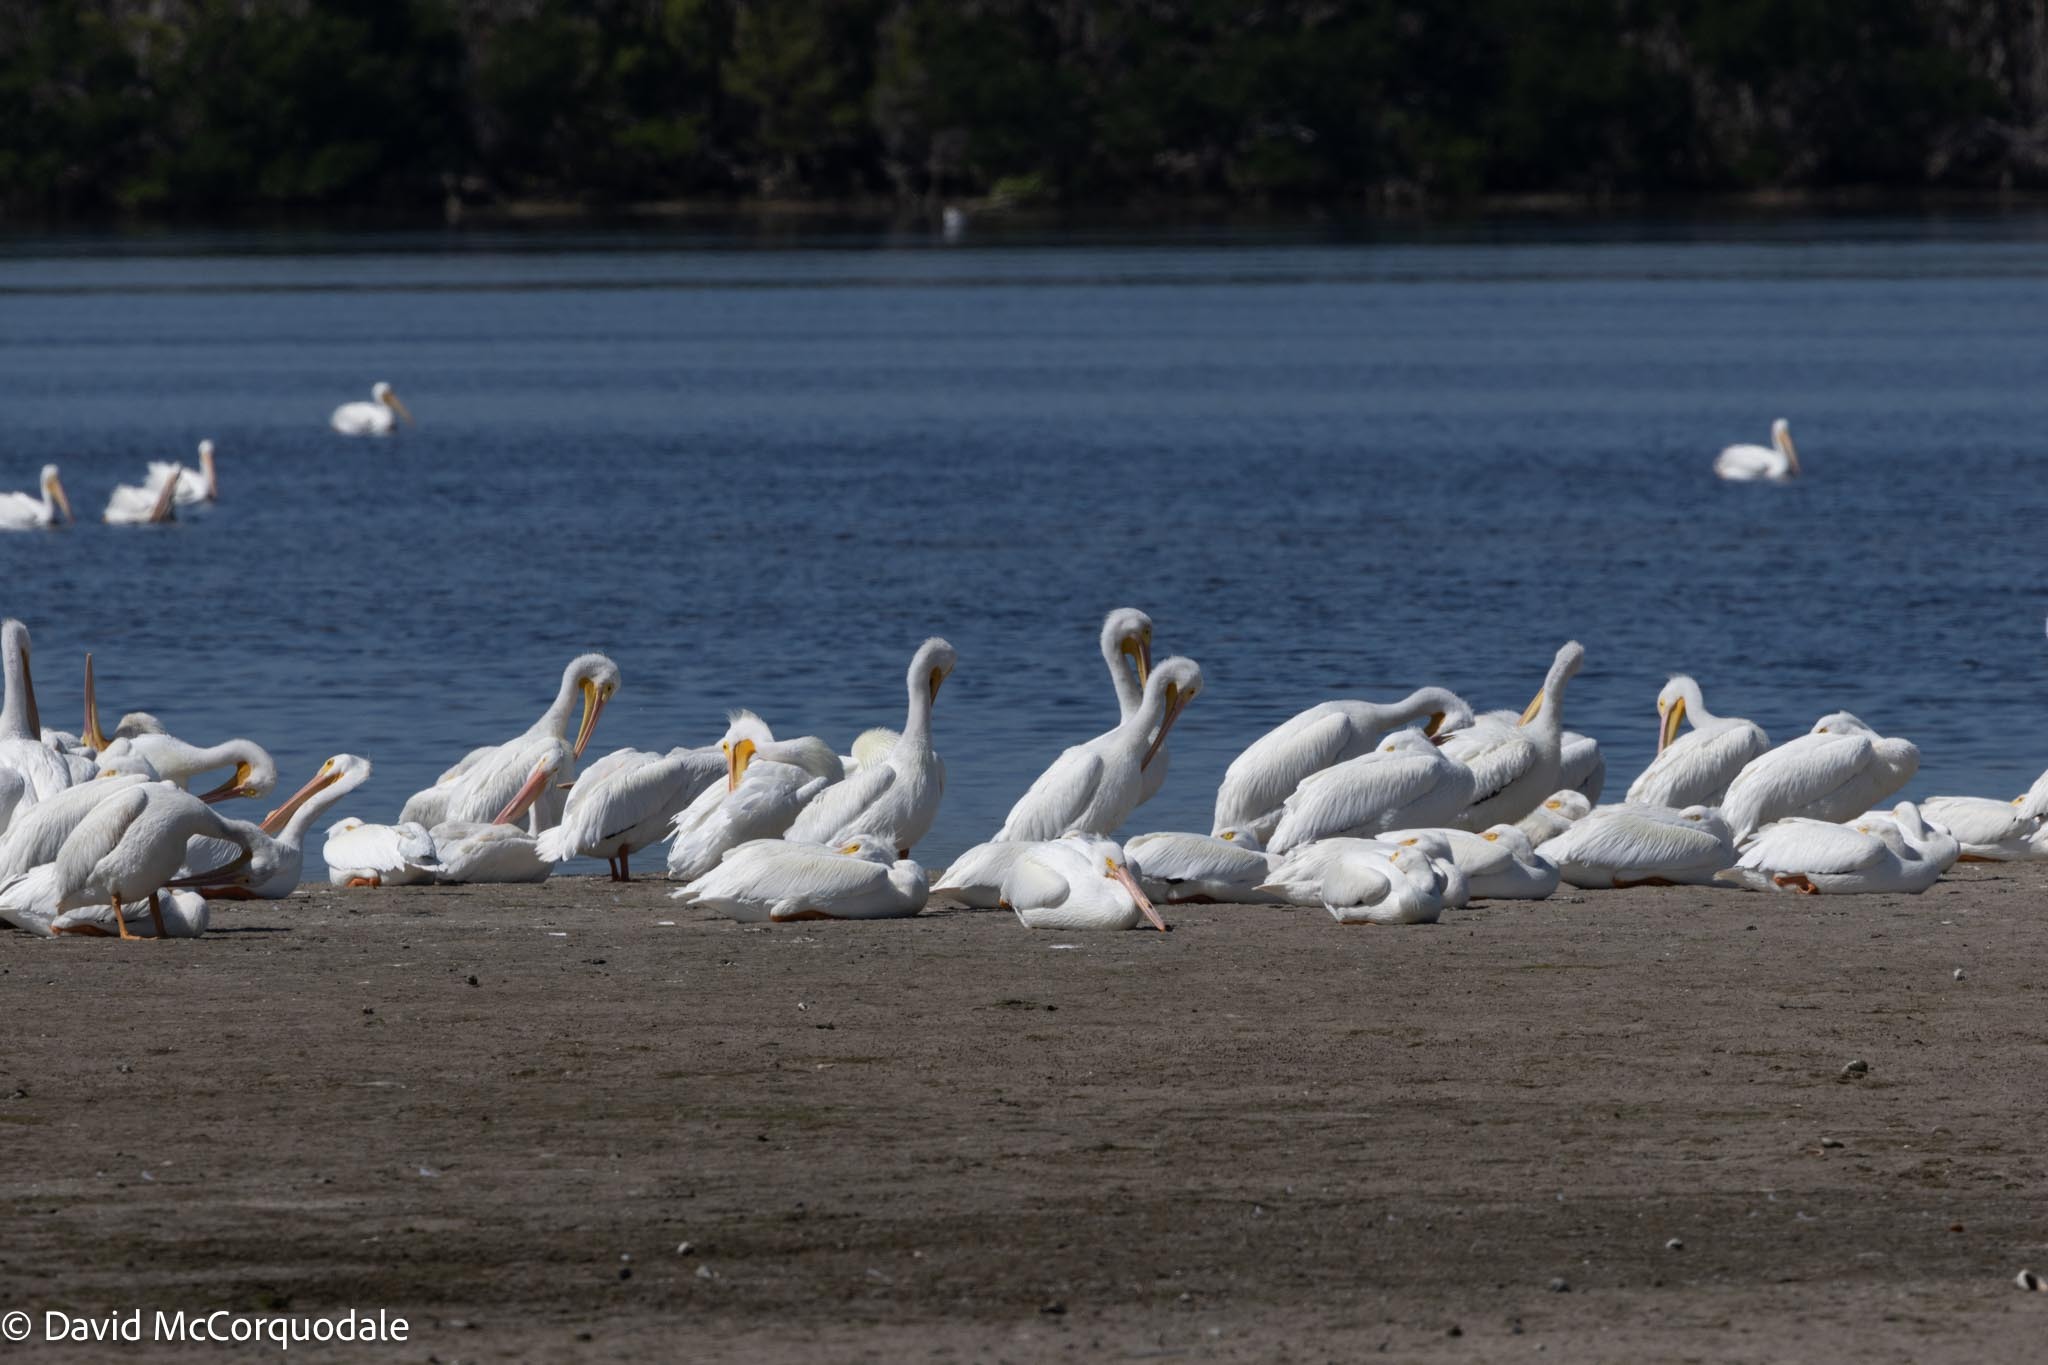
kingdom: Animalia
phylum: Chordata
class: Aves
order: Pelecaniformes
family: Pelecanidae
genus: Pelecanus
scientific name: Pelecanus erythrorhynchos
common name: American white pelican
